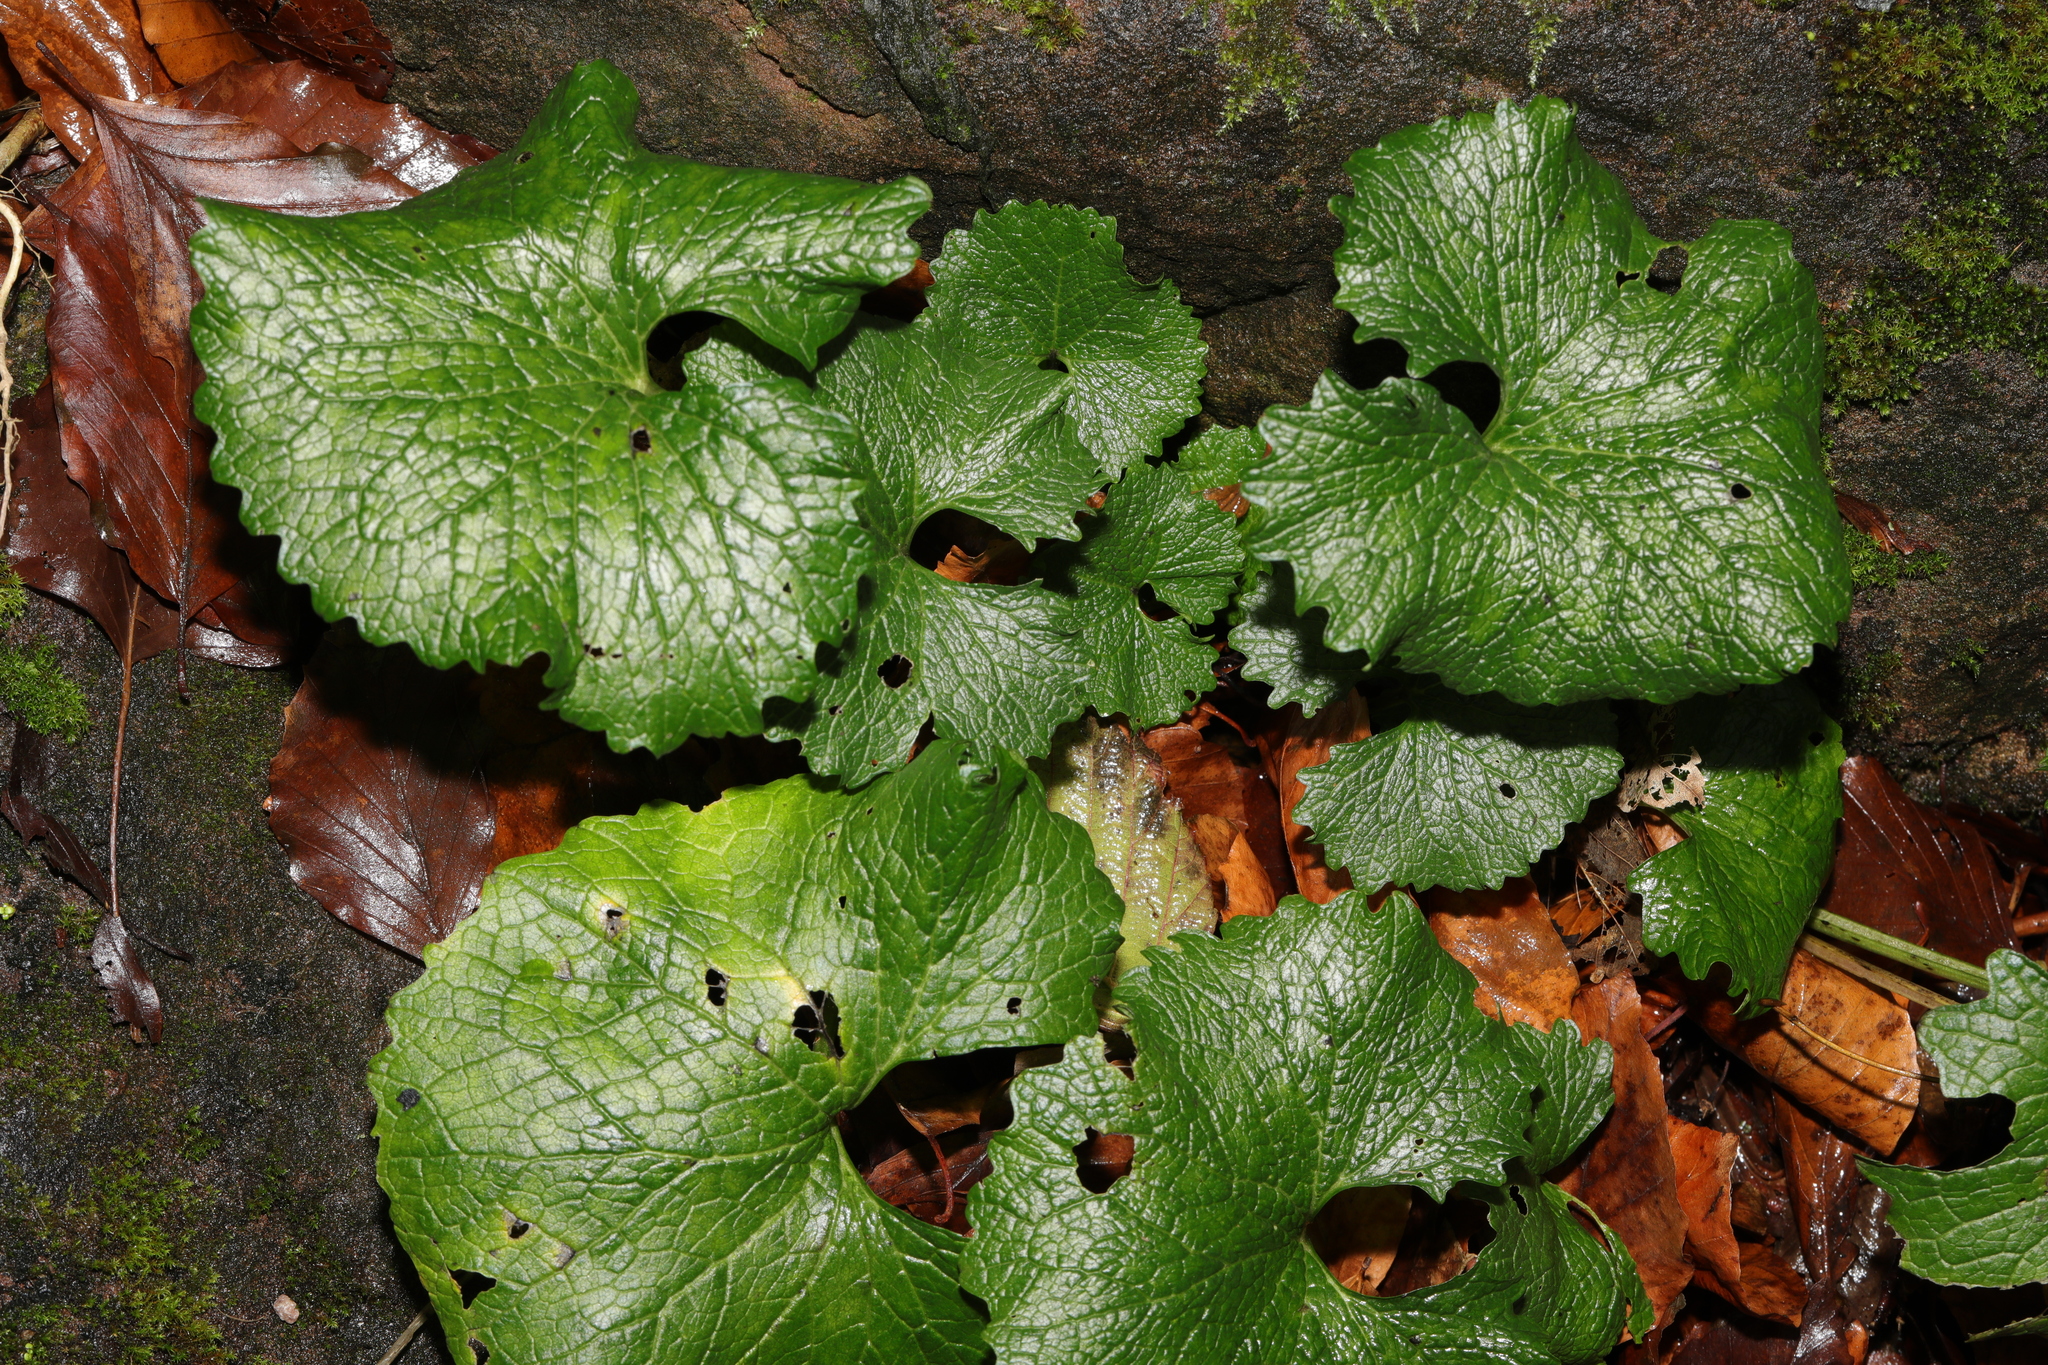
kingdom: Plantae
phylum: Tracheophyta
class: Magnoliopsida
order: Brassicales
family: Brassicaceae
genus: Alliaria
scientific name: Alliaria petiolata
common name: Garlic mustard
